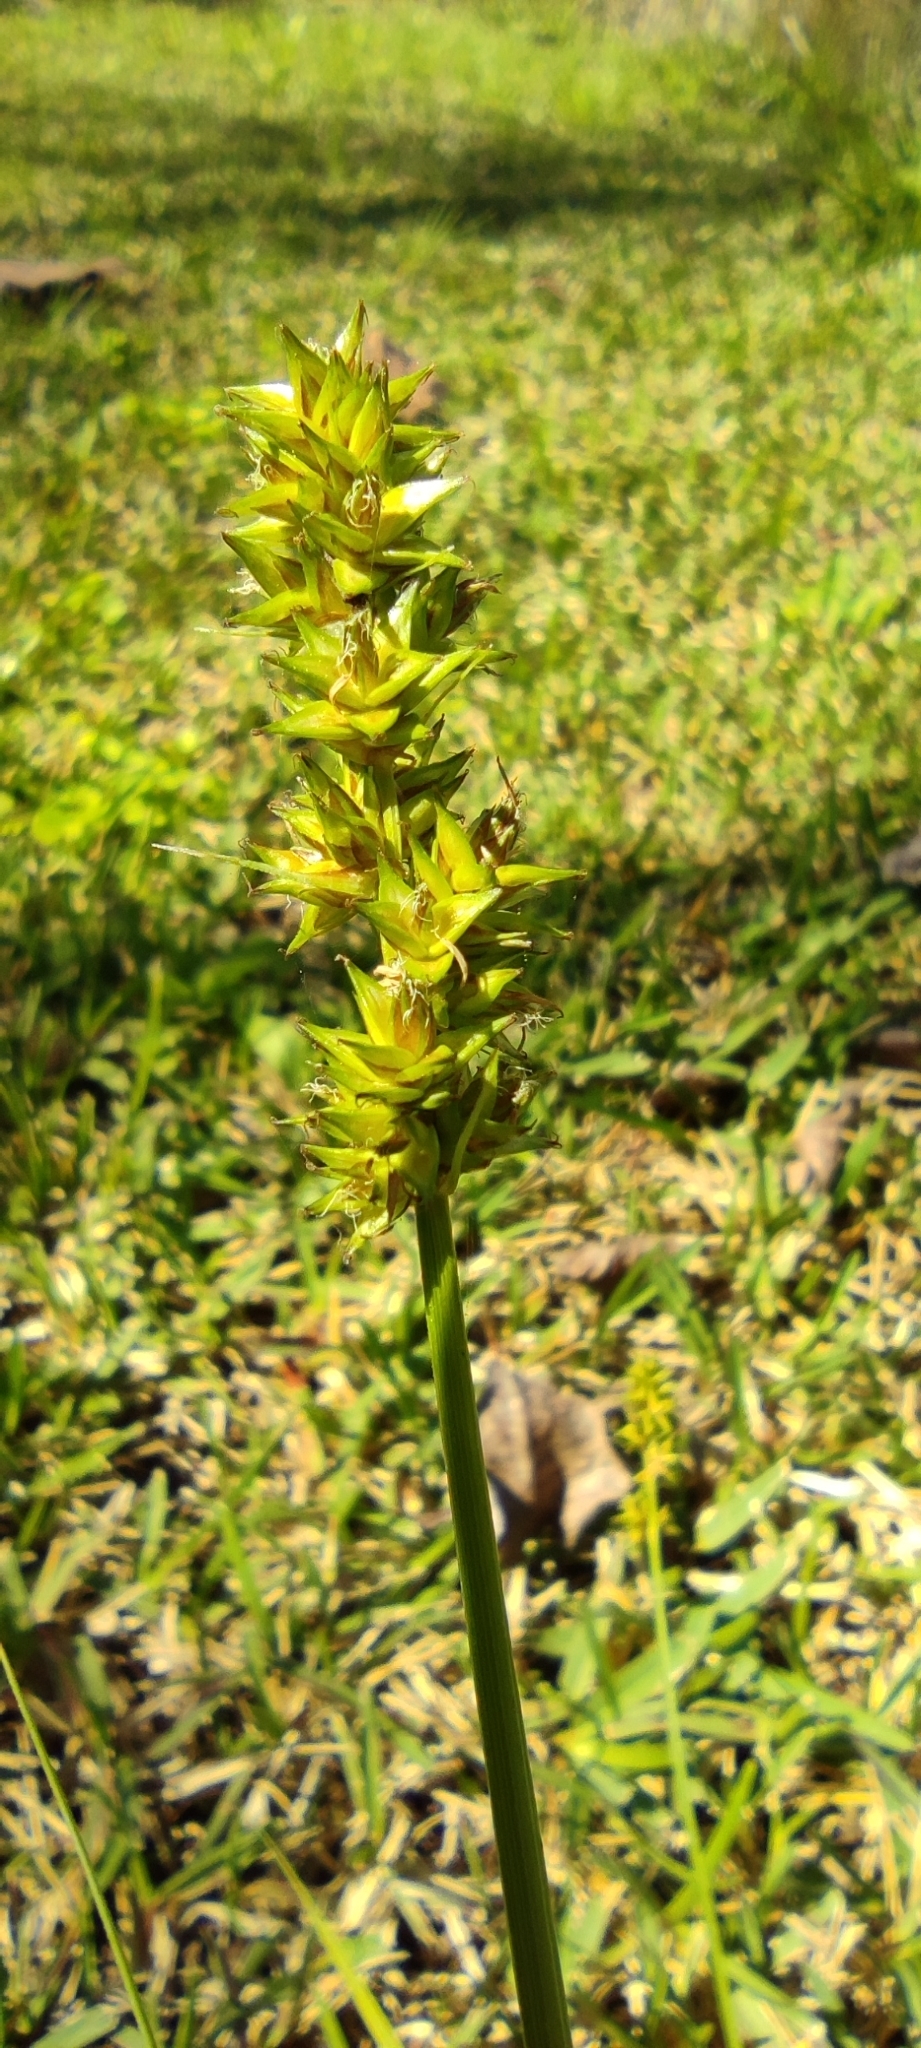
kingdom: Plantae
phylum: Tracheophyta
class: Liliopsida
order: Poales
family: Cyperaceae
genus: Carex
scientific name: Carex otrubae
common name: False fox-sedge
